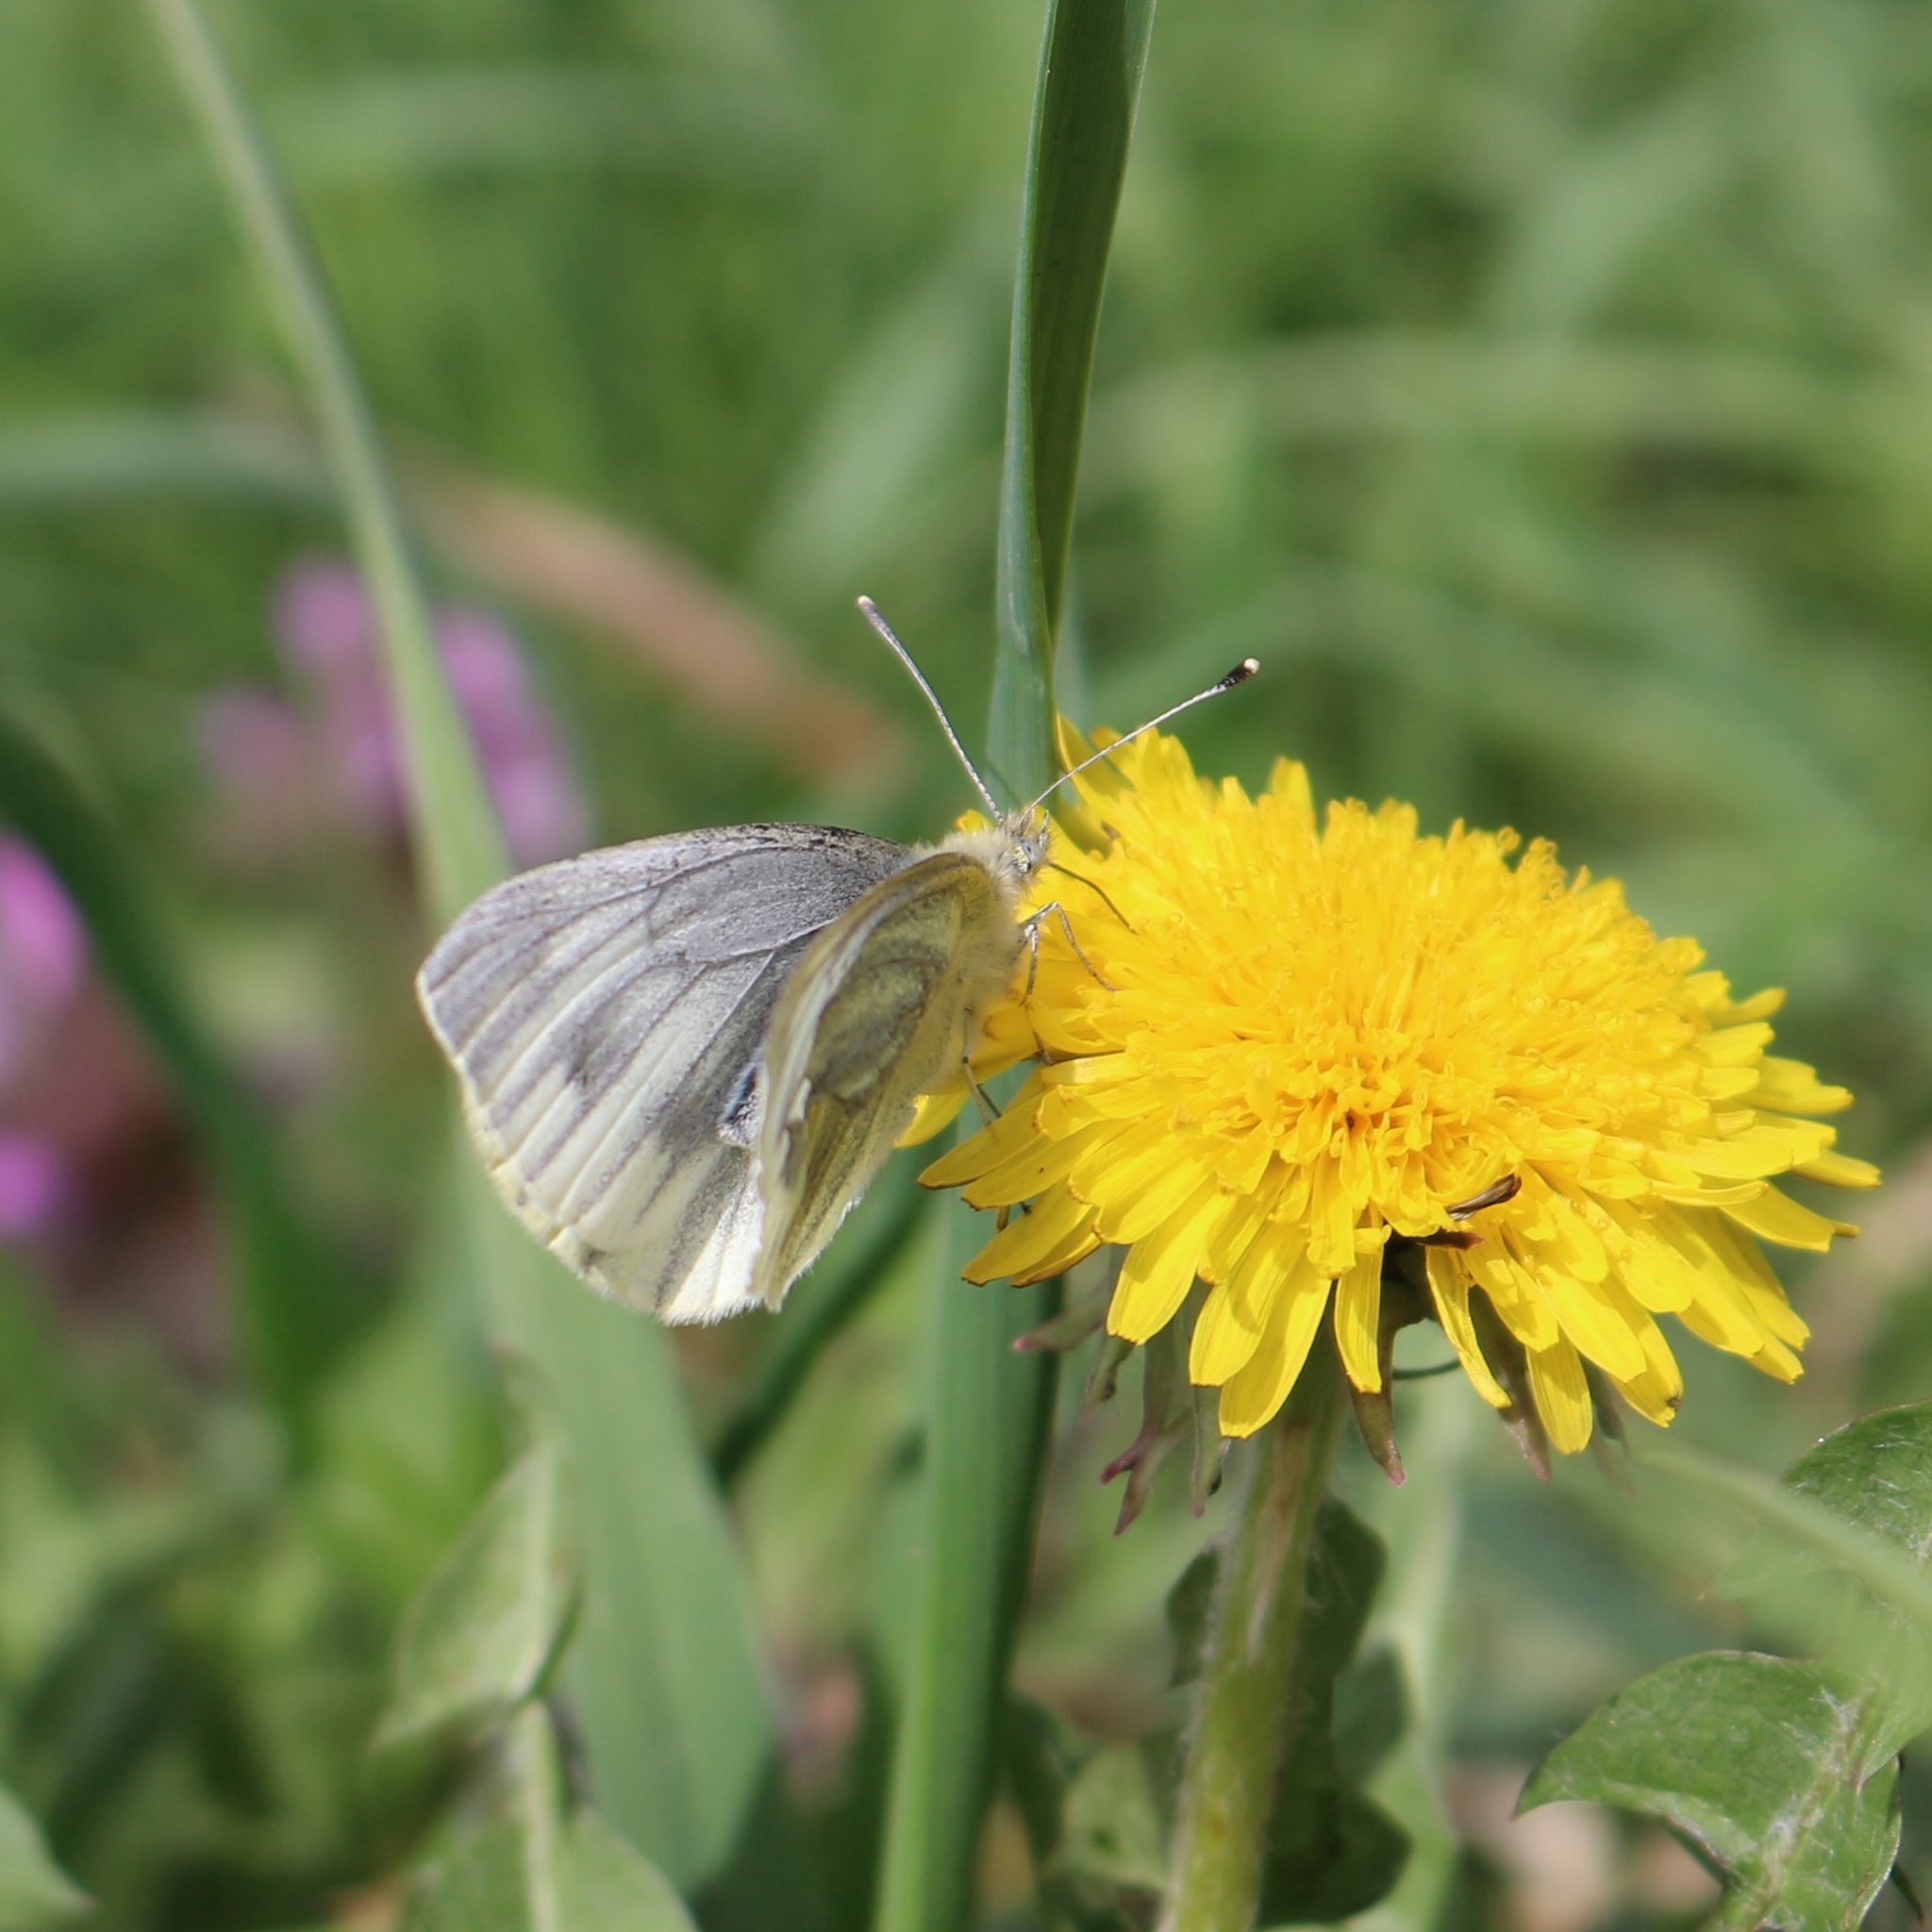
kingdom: Animalia
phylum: Arthropoda
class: Insecta
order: Lepidoptera
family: Pieridae
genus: Pieris
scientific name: Pieris napi
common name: Green-veined white
